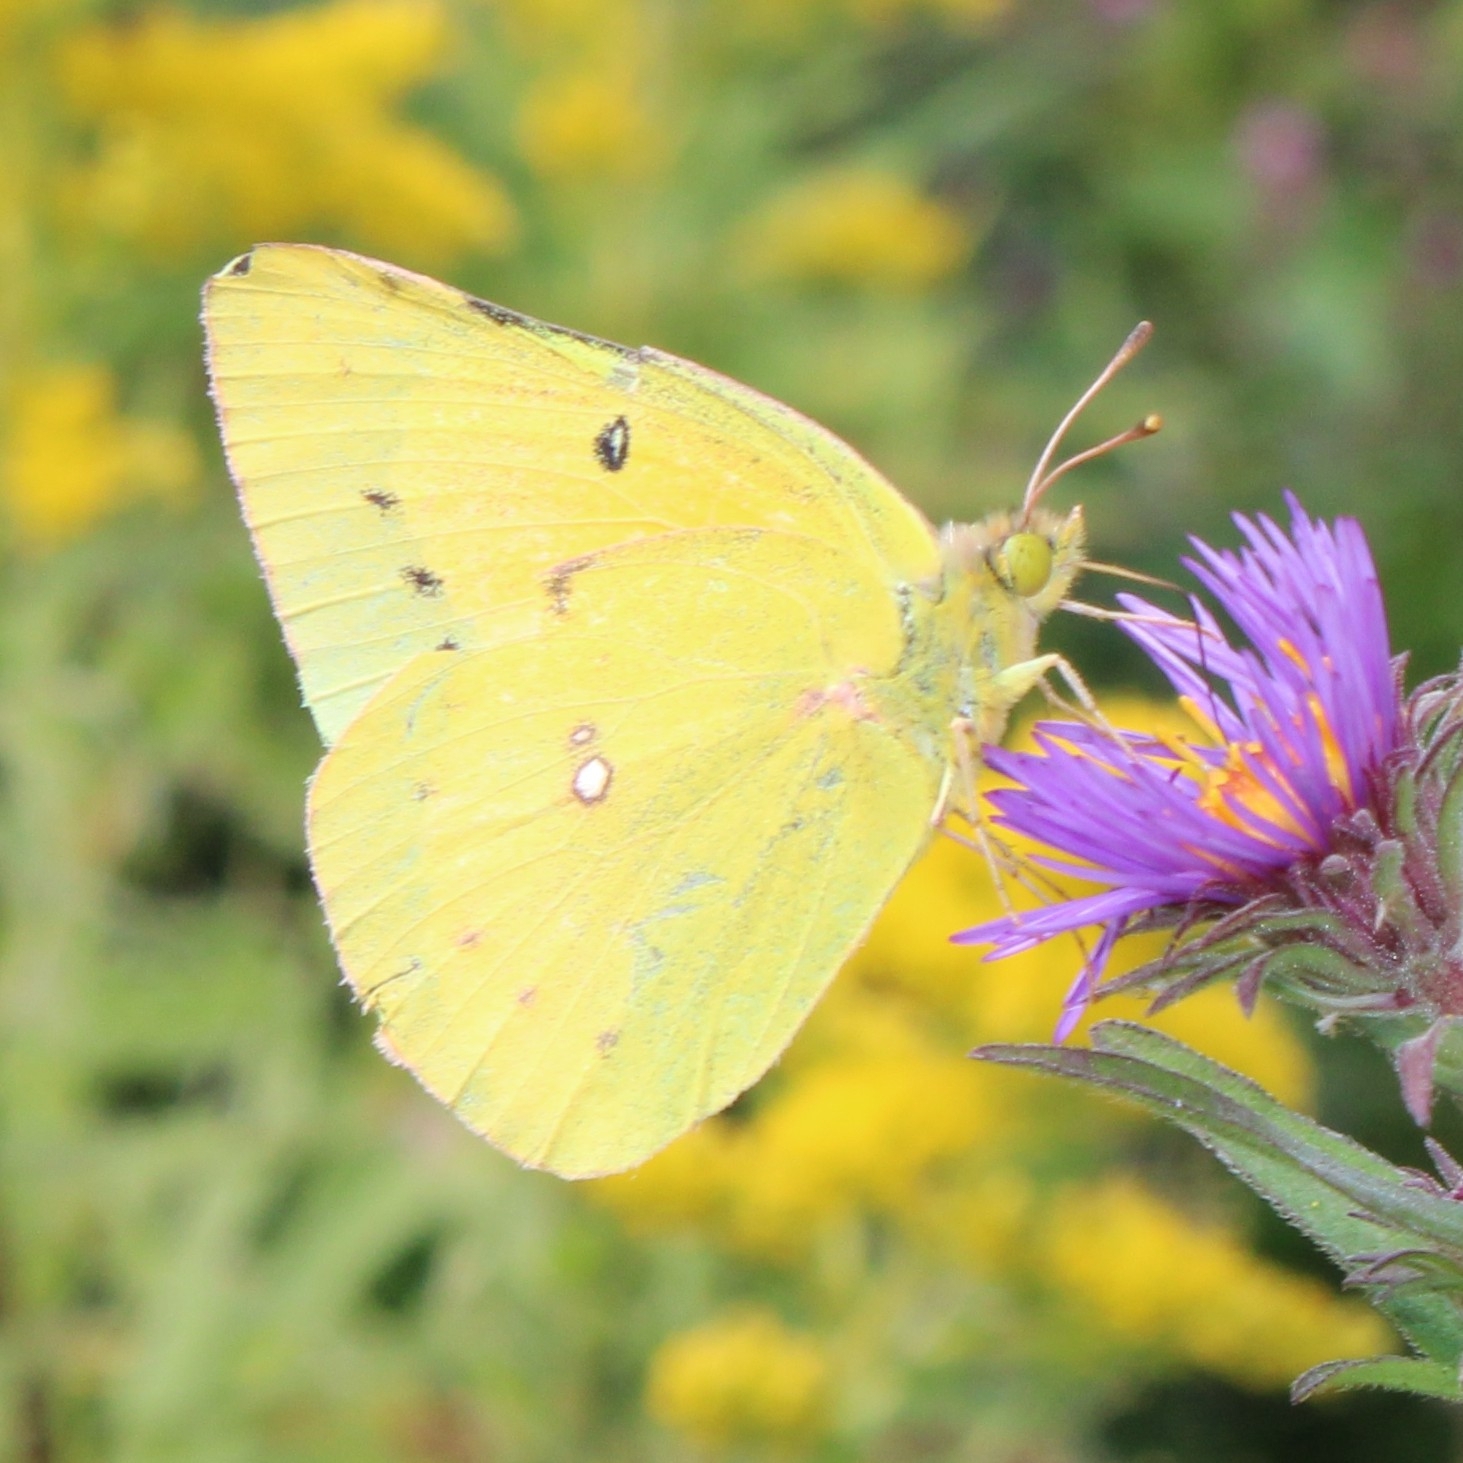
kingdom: Animalia
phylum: Arthropoda
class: Insecta
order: Lepidoptera
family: Pieridae
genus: Colias
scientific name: Colias eurytheme
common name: Alfalfa butterfly
